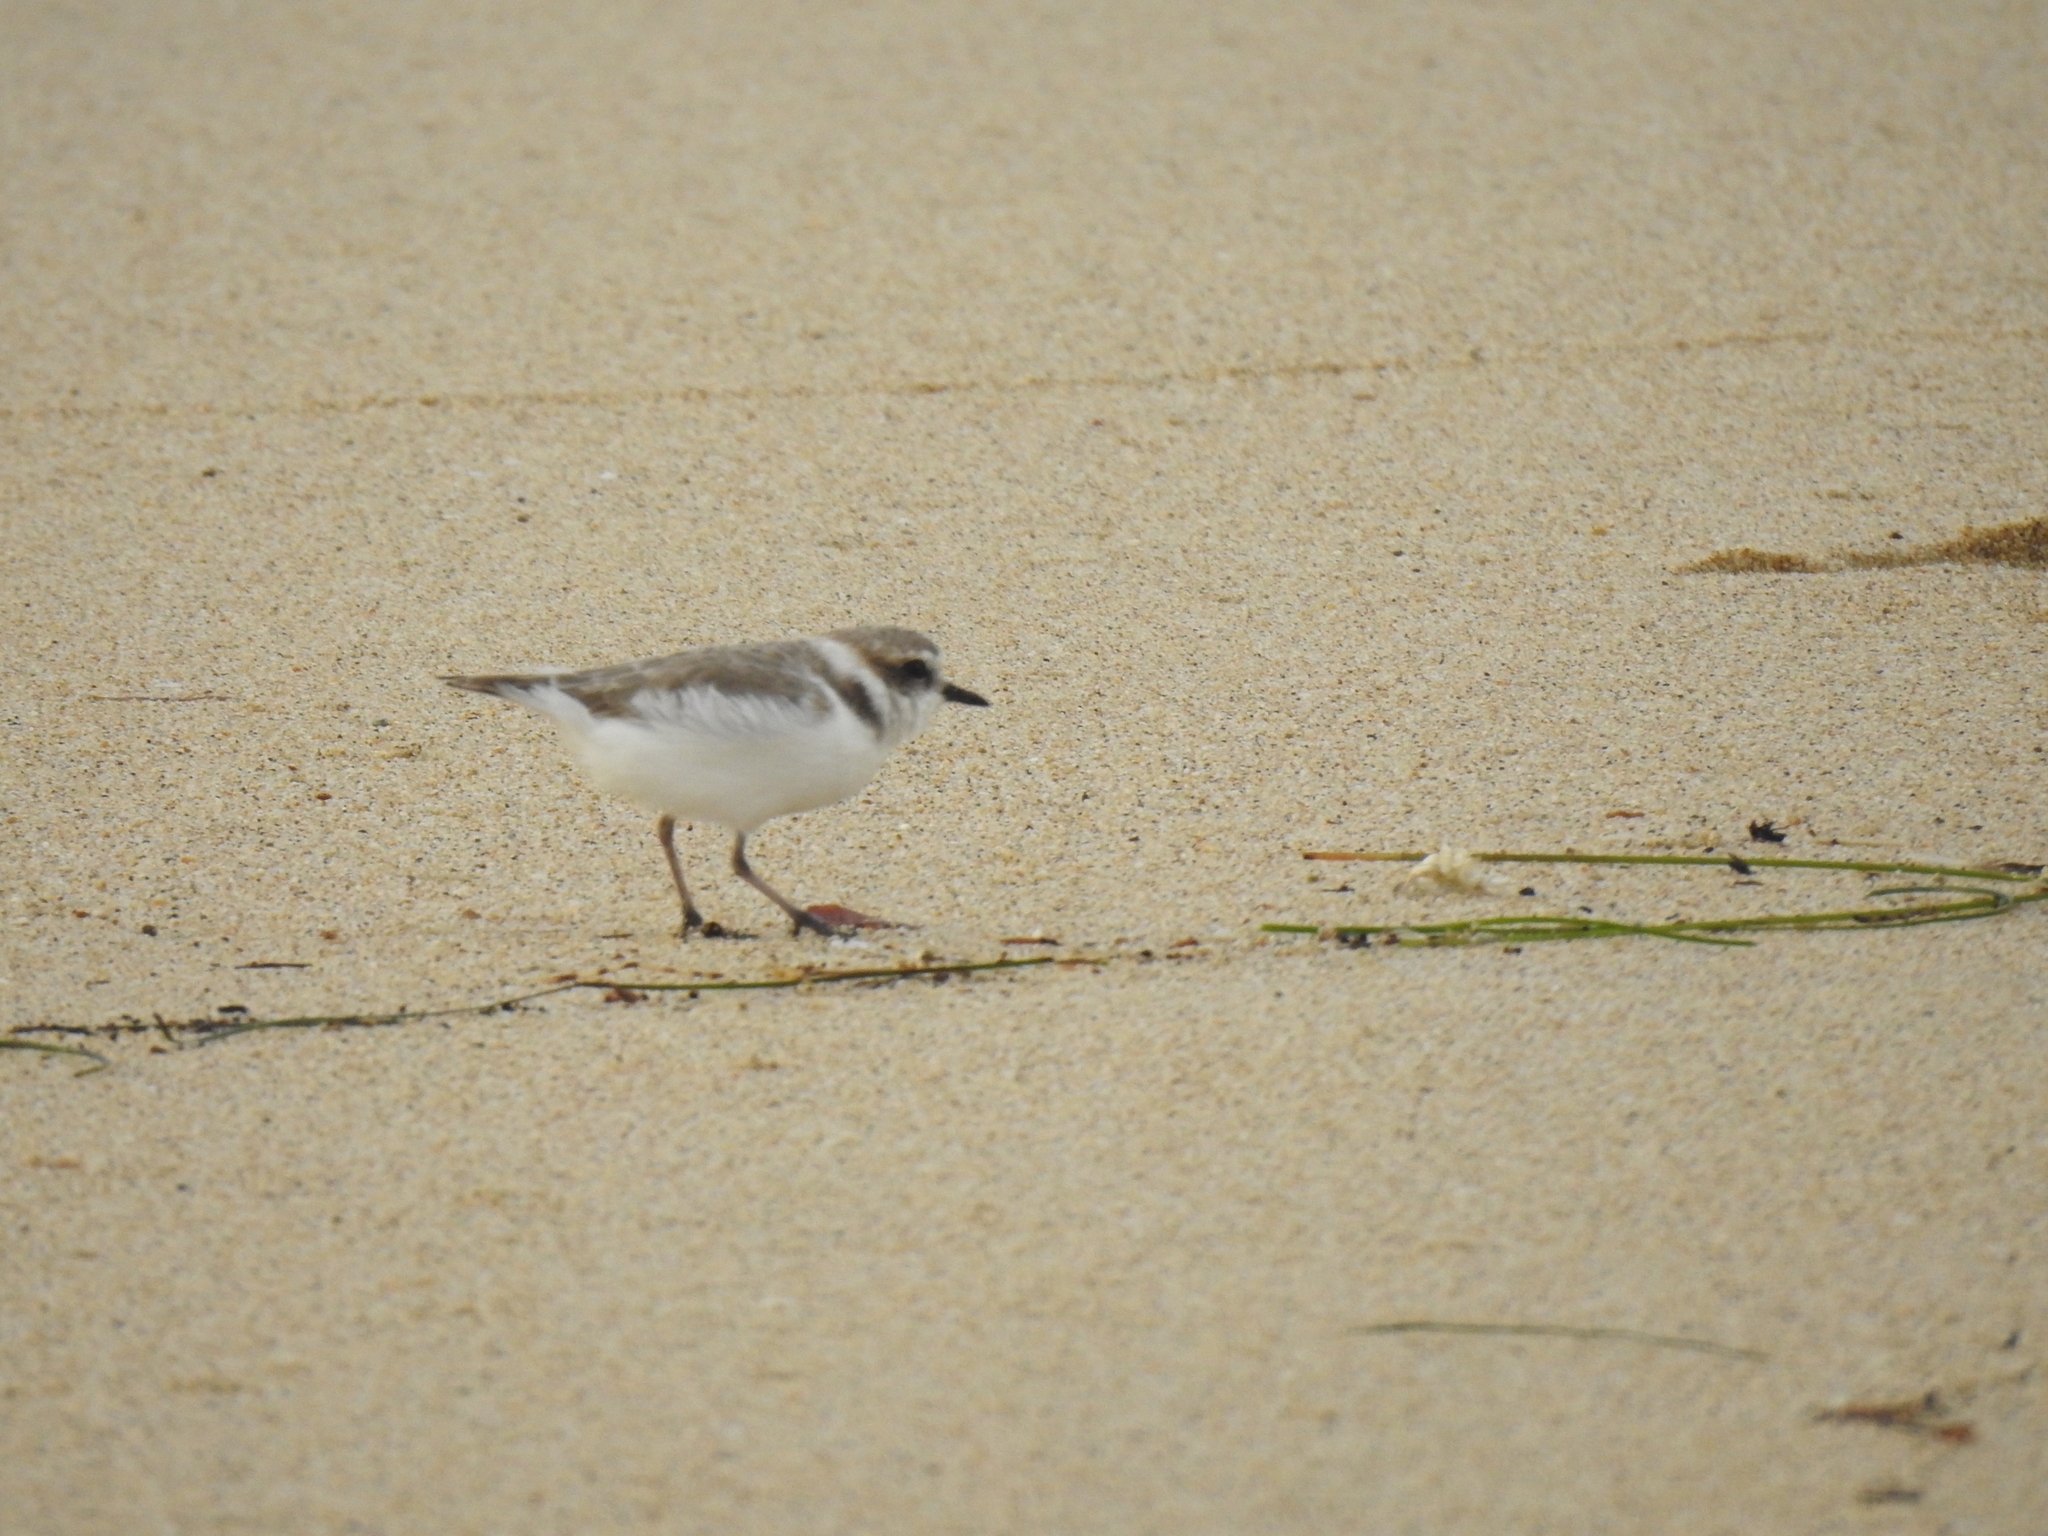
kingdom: Animalia
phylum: Chordata
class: Aves
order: Charadriiformes
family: Charadriidae
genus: Anarhynchus
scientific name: Anarhynchus
